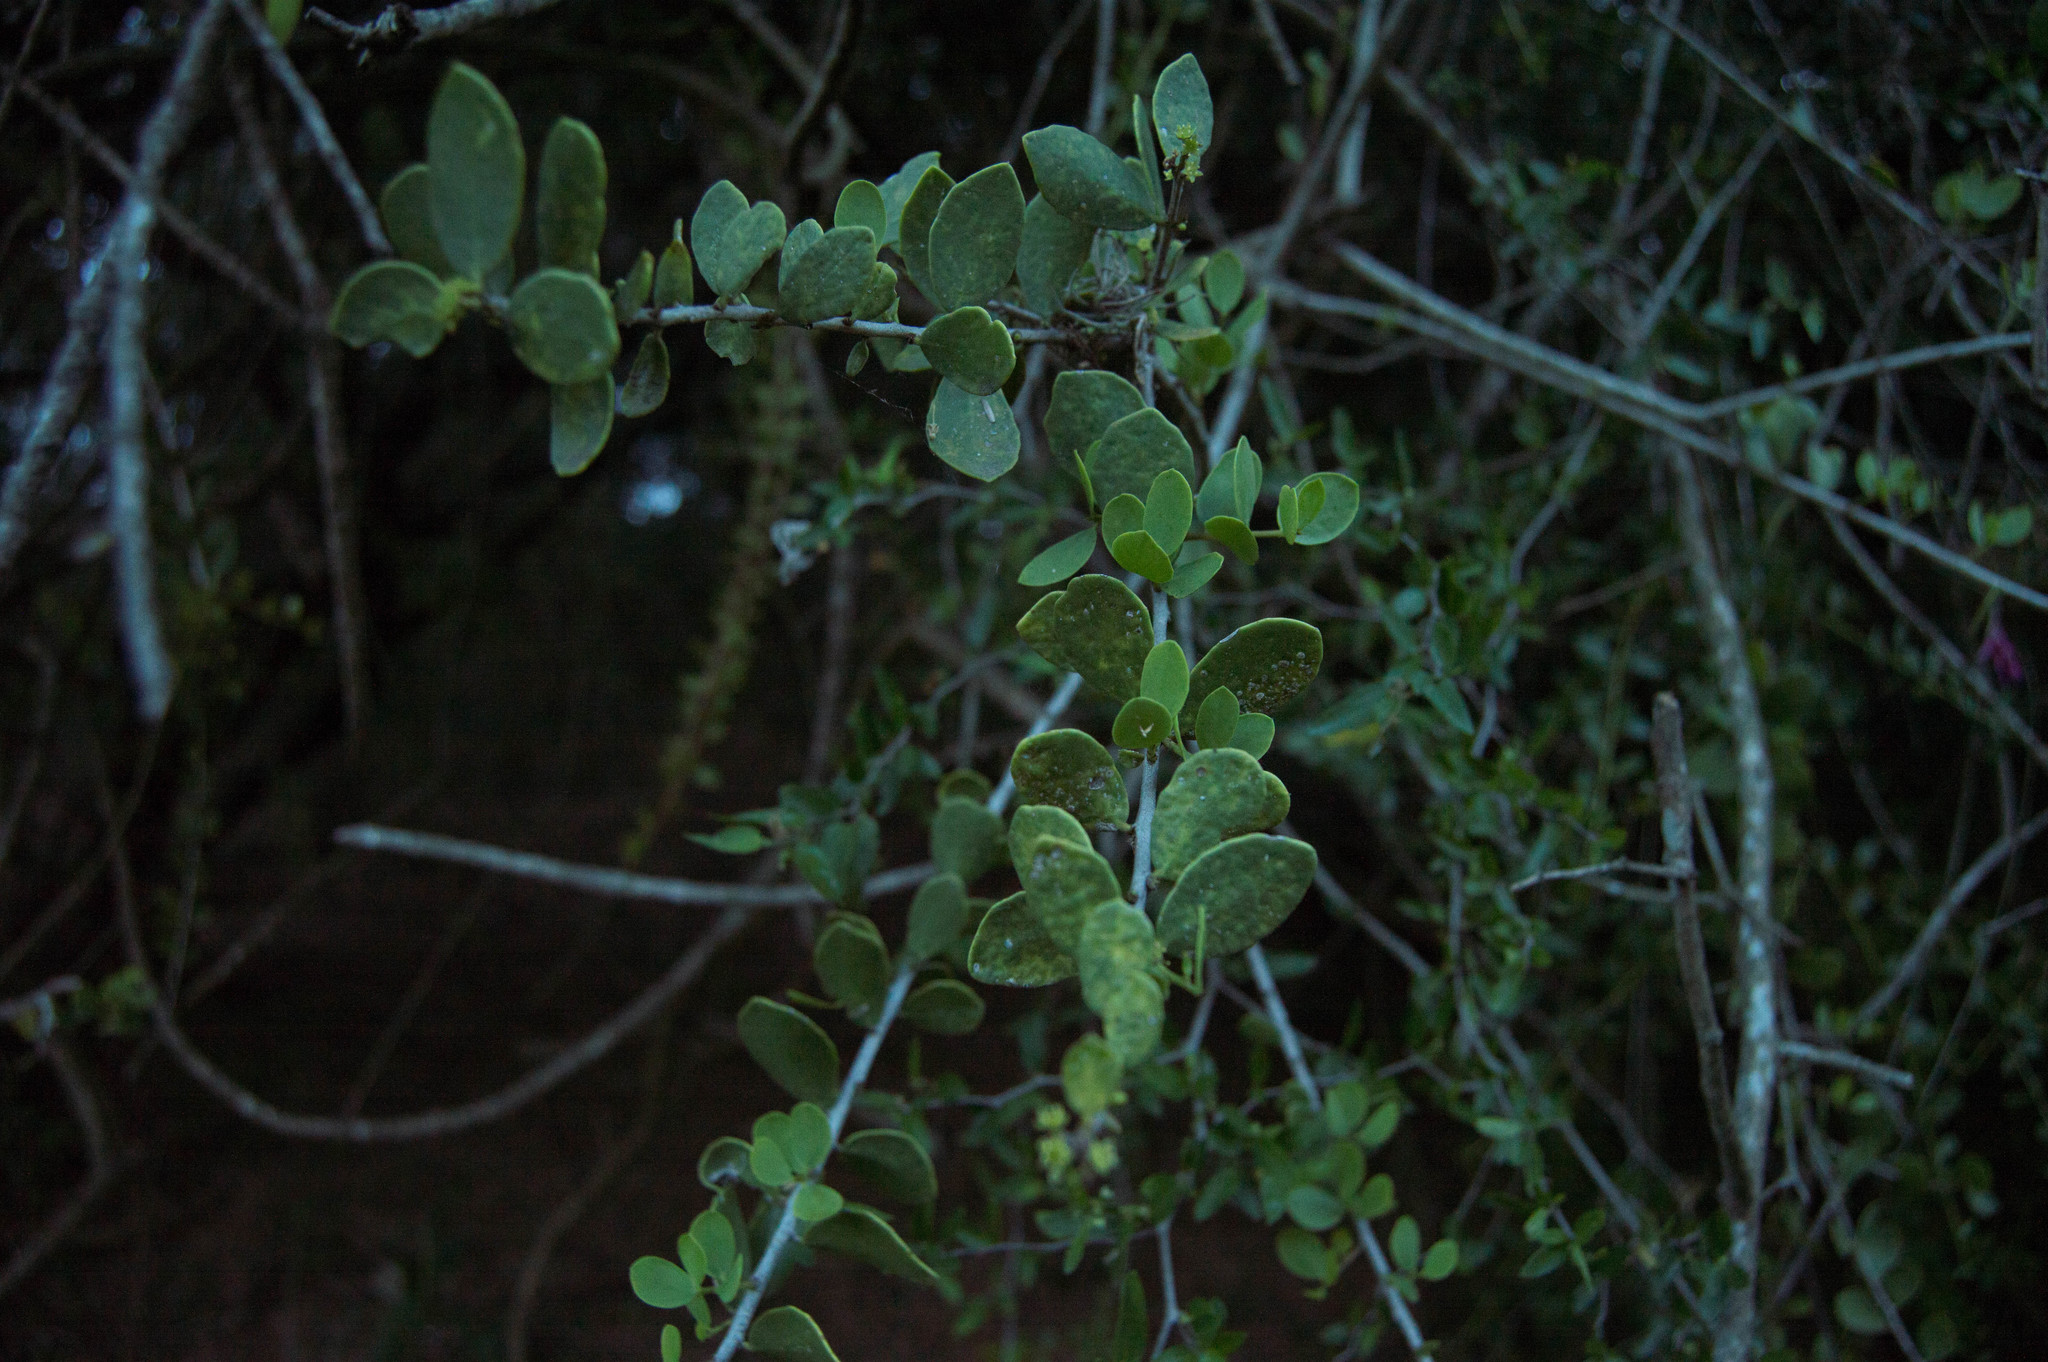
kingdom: Plantae
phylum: Tracheophyta
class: Magnoliopsida
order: Celastrales
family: Celastraceae
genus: Tricerma
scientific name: Tricerma vitis-idaeum
